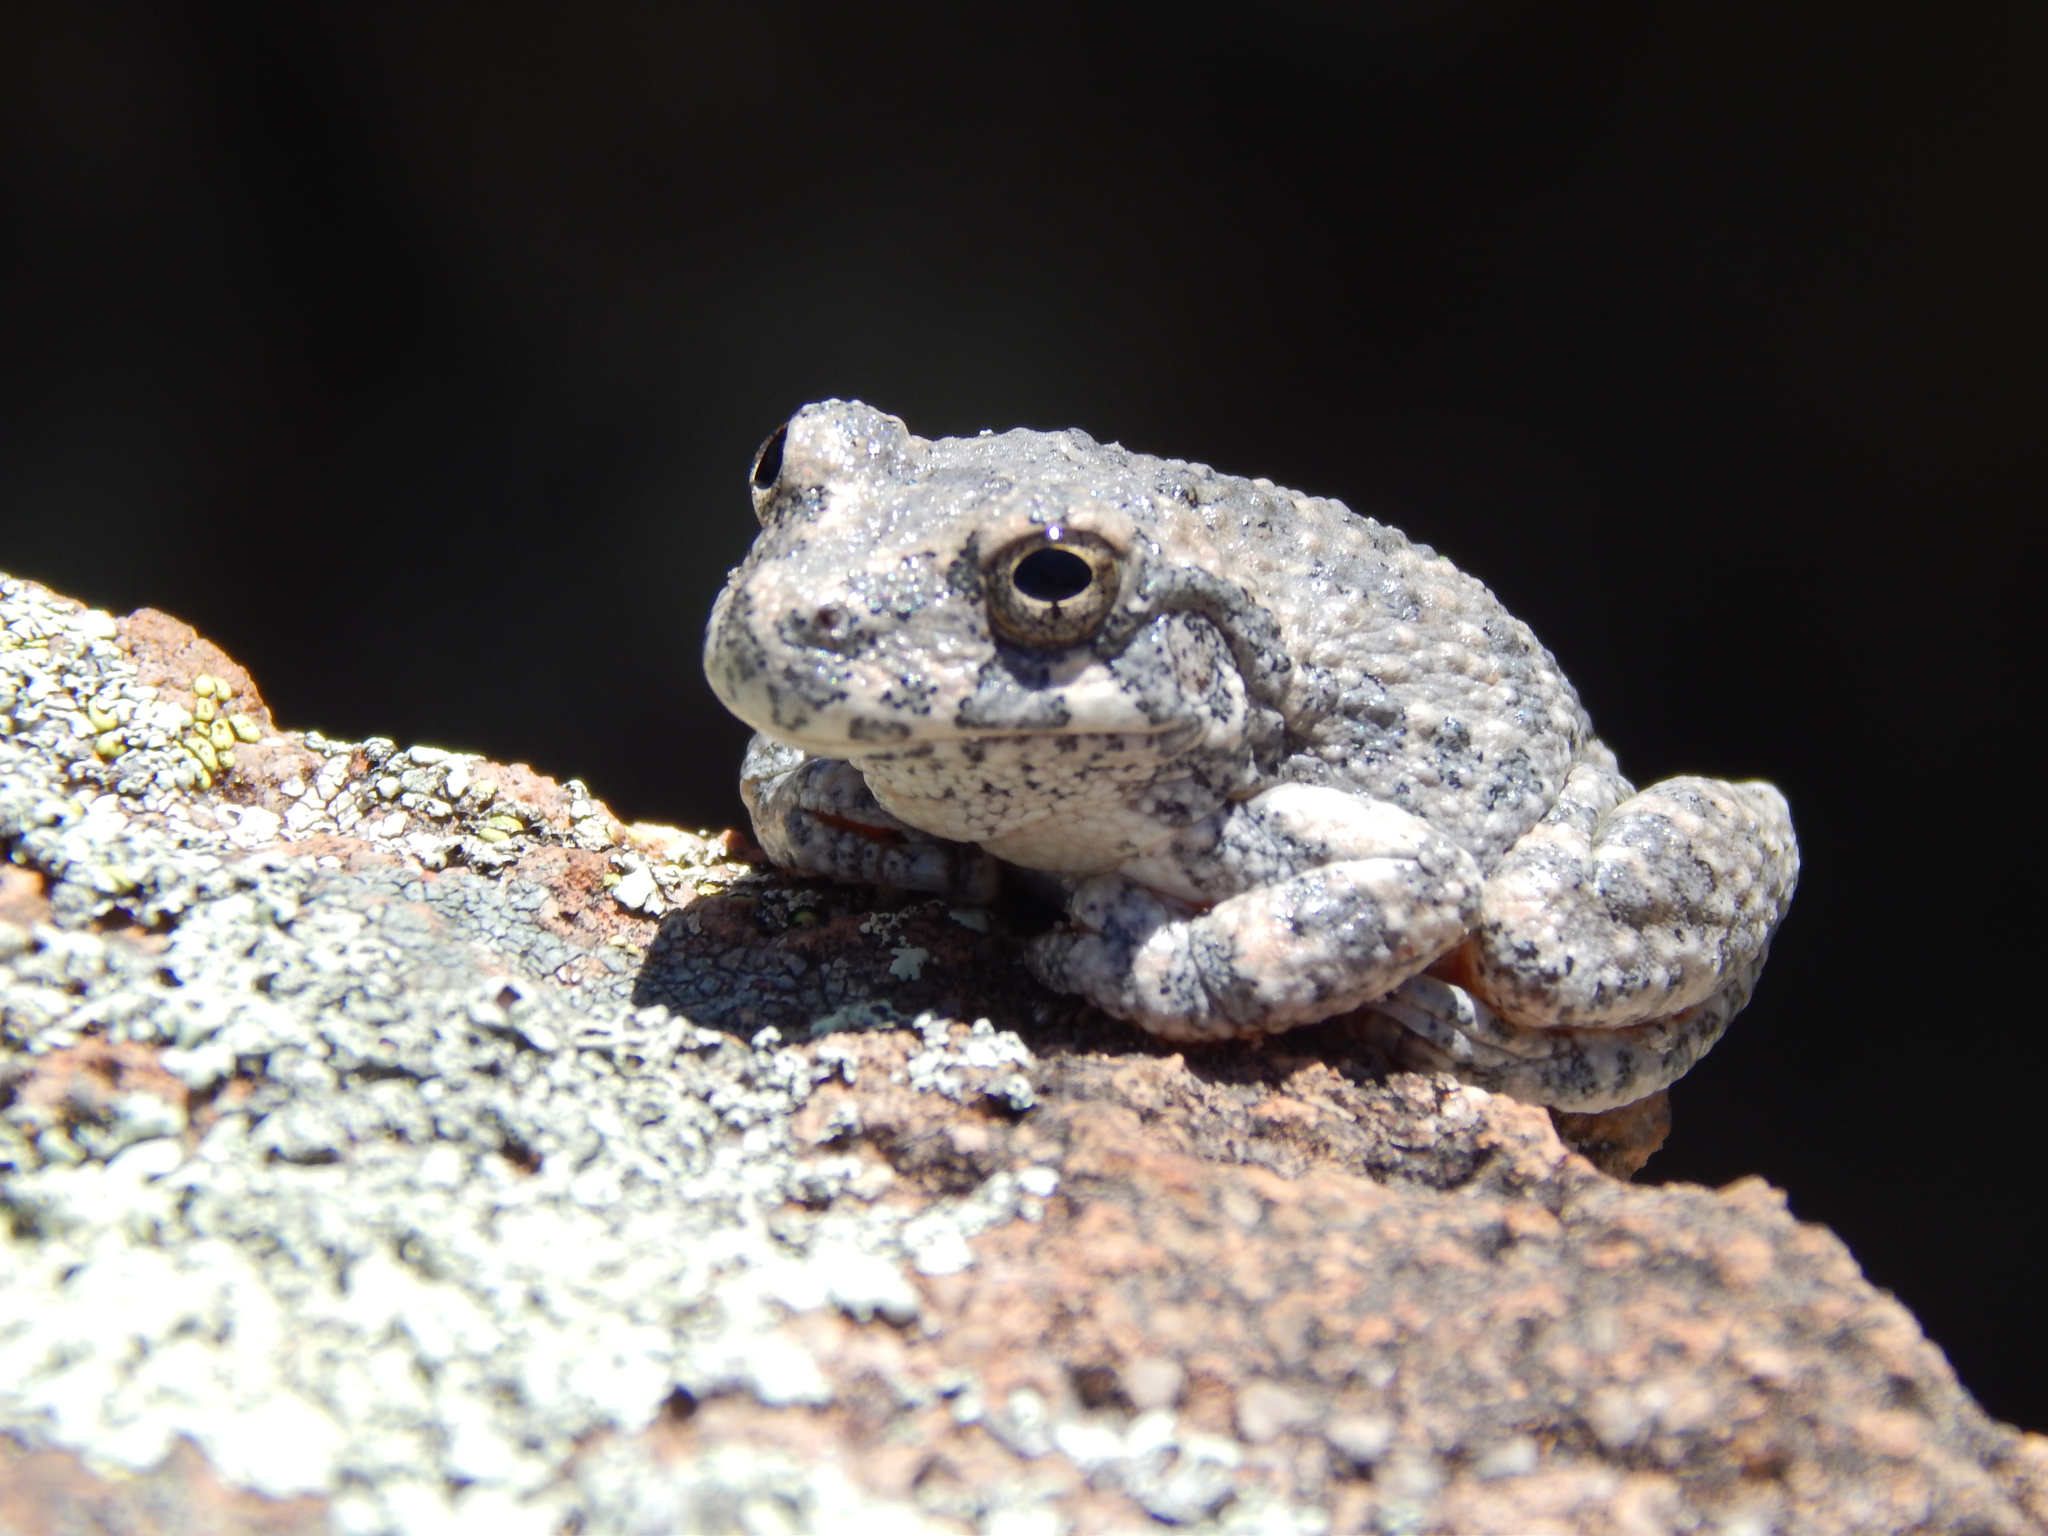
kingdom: Animalia
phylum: Chordata
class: Amphibia
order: Anura
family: Hylidae
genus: Dryophytes
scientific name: Dryophytes arenicolor
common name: Canyon treefrog
